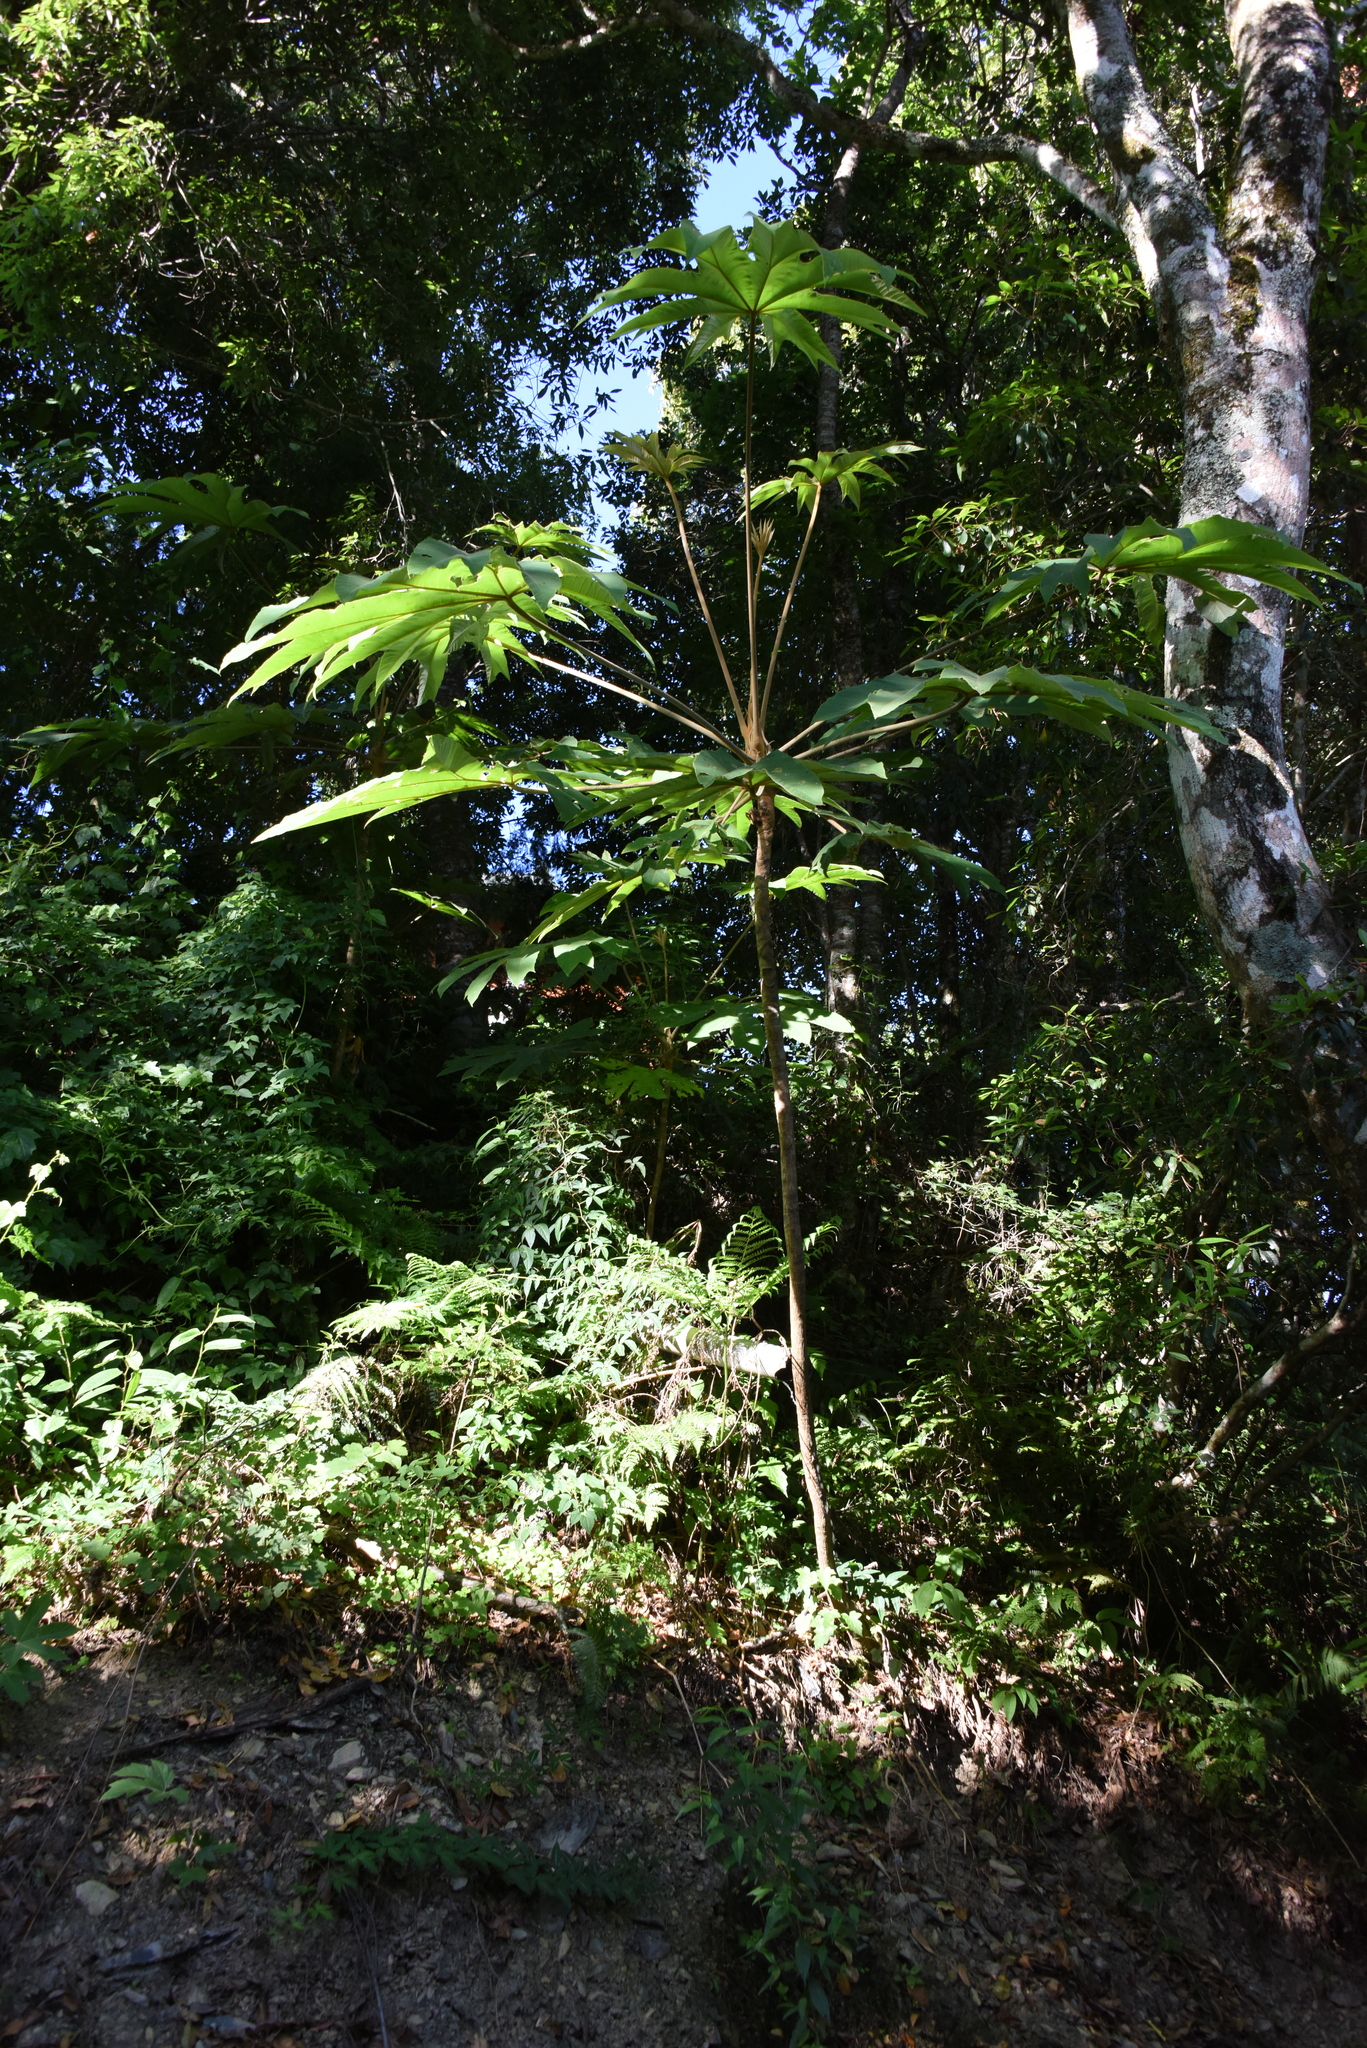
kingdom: Plantae
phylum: Tracheophyta
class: Magnoliopsida
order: Apiales
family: Araliaceae
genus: Tetrapanax
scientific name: Tetrapanax papyrifer
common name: Rice-paper plant
